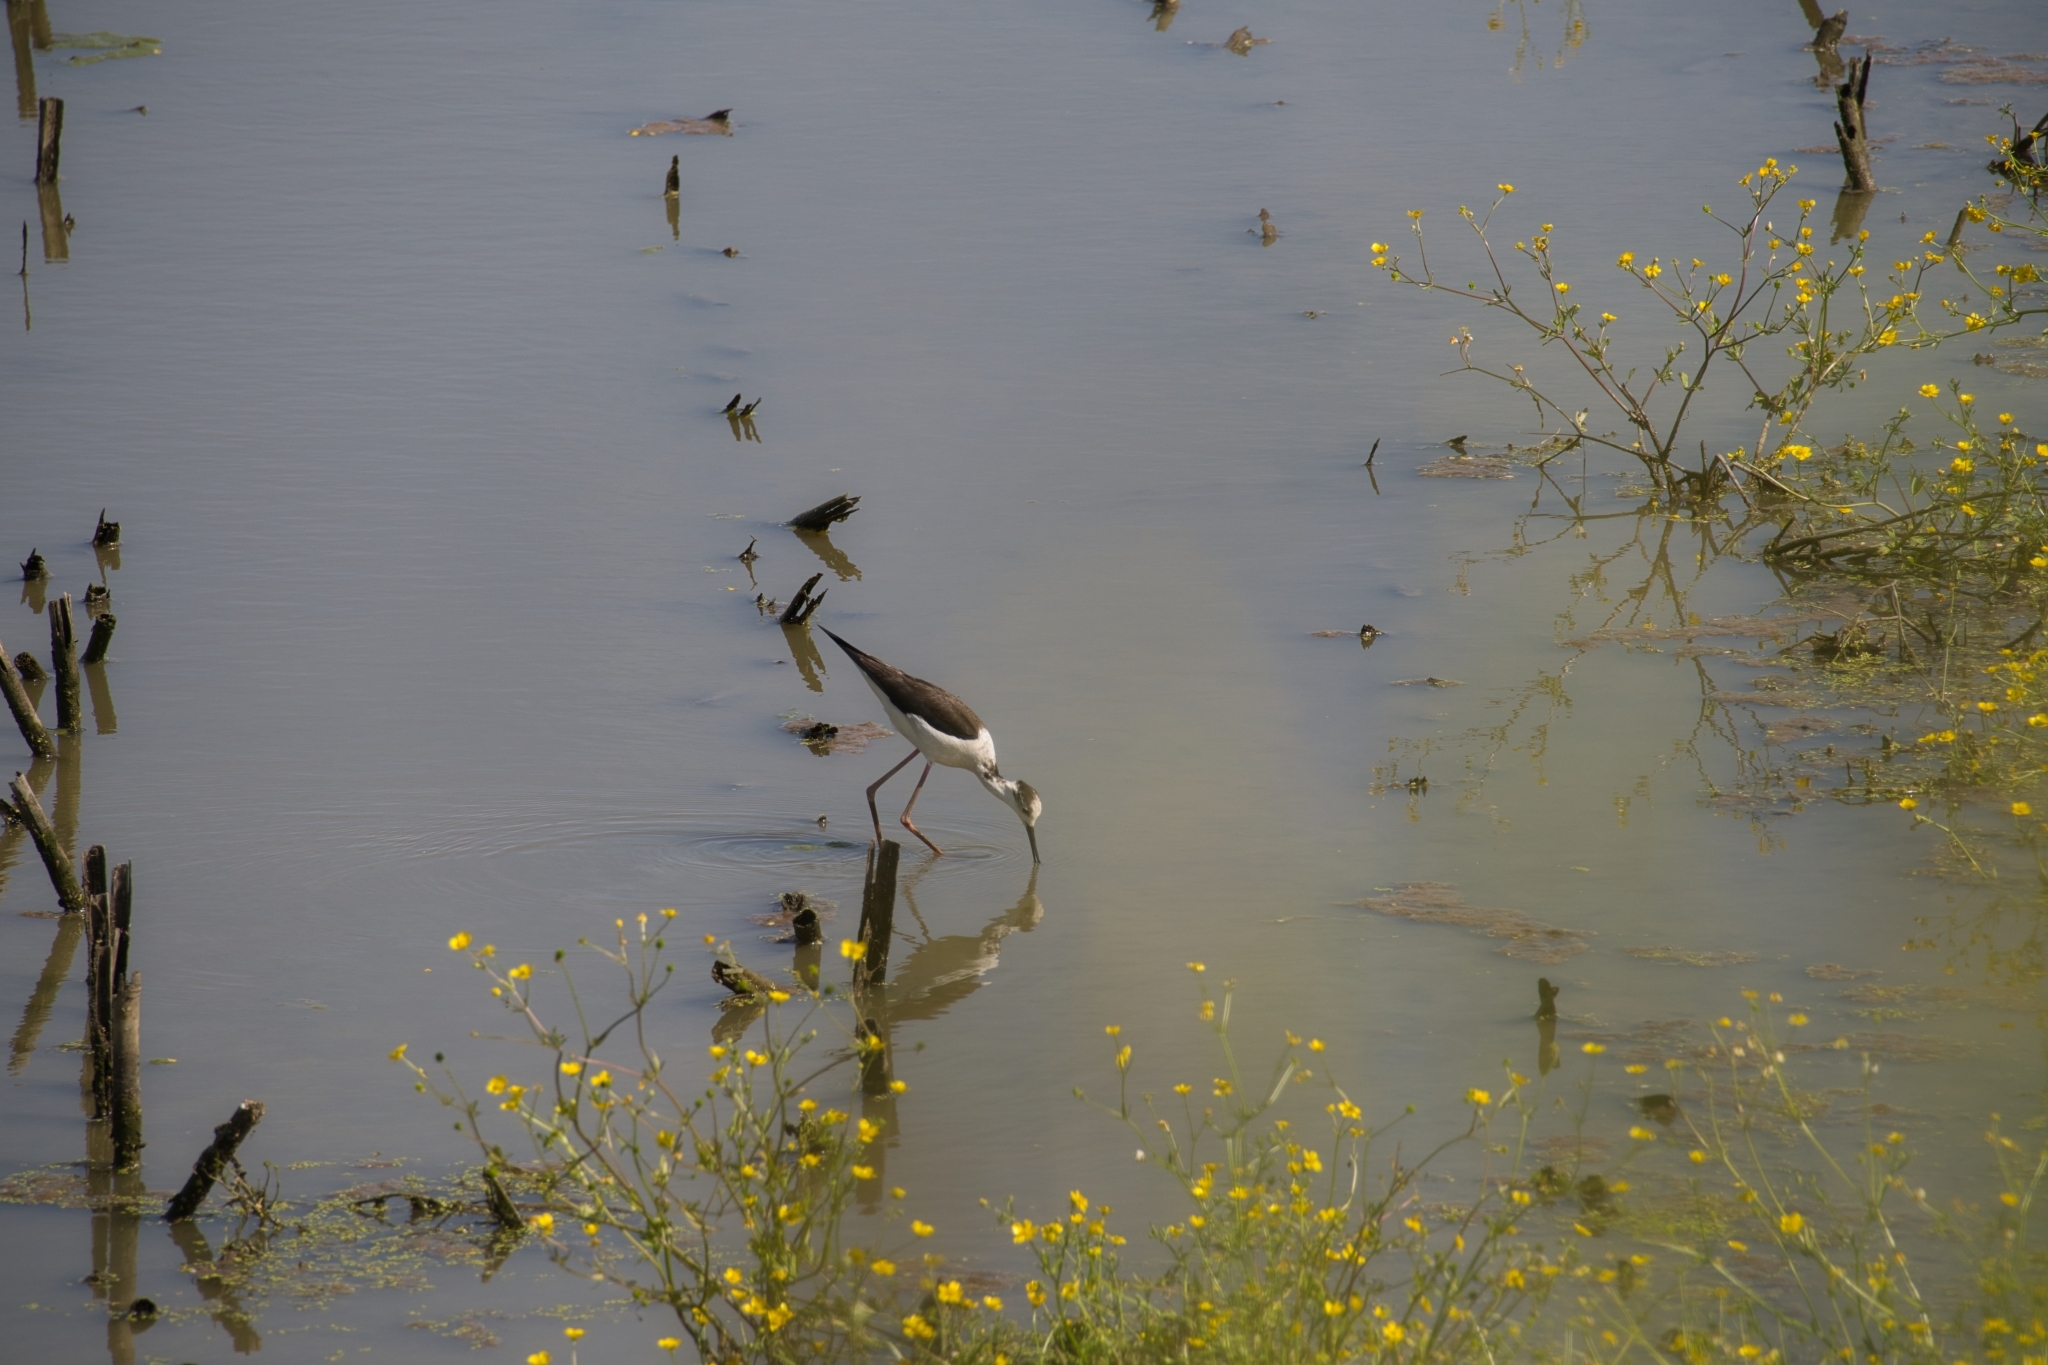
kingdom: Animalia
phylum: Chordata
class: Aves
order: Charadriiformes
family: Recurvirostridae
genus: Himantopus
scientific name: Himantopus himantopus
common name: Black-winged stilt
